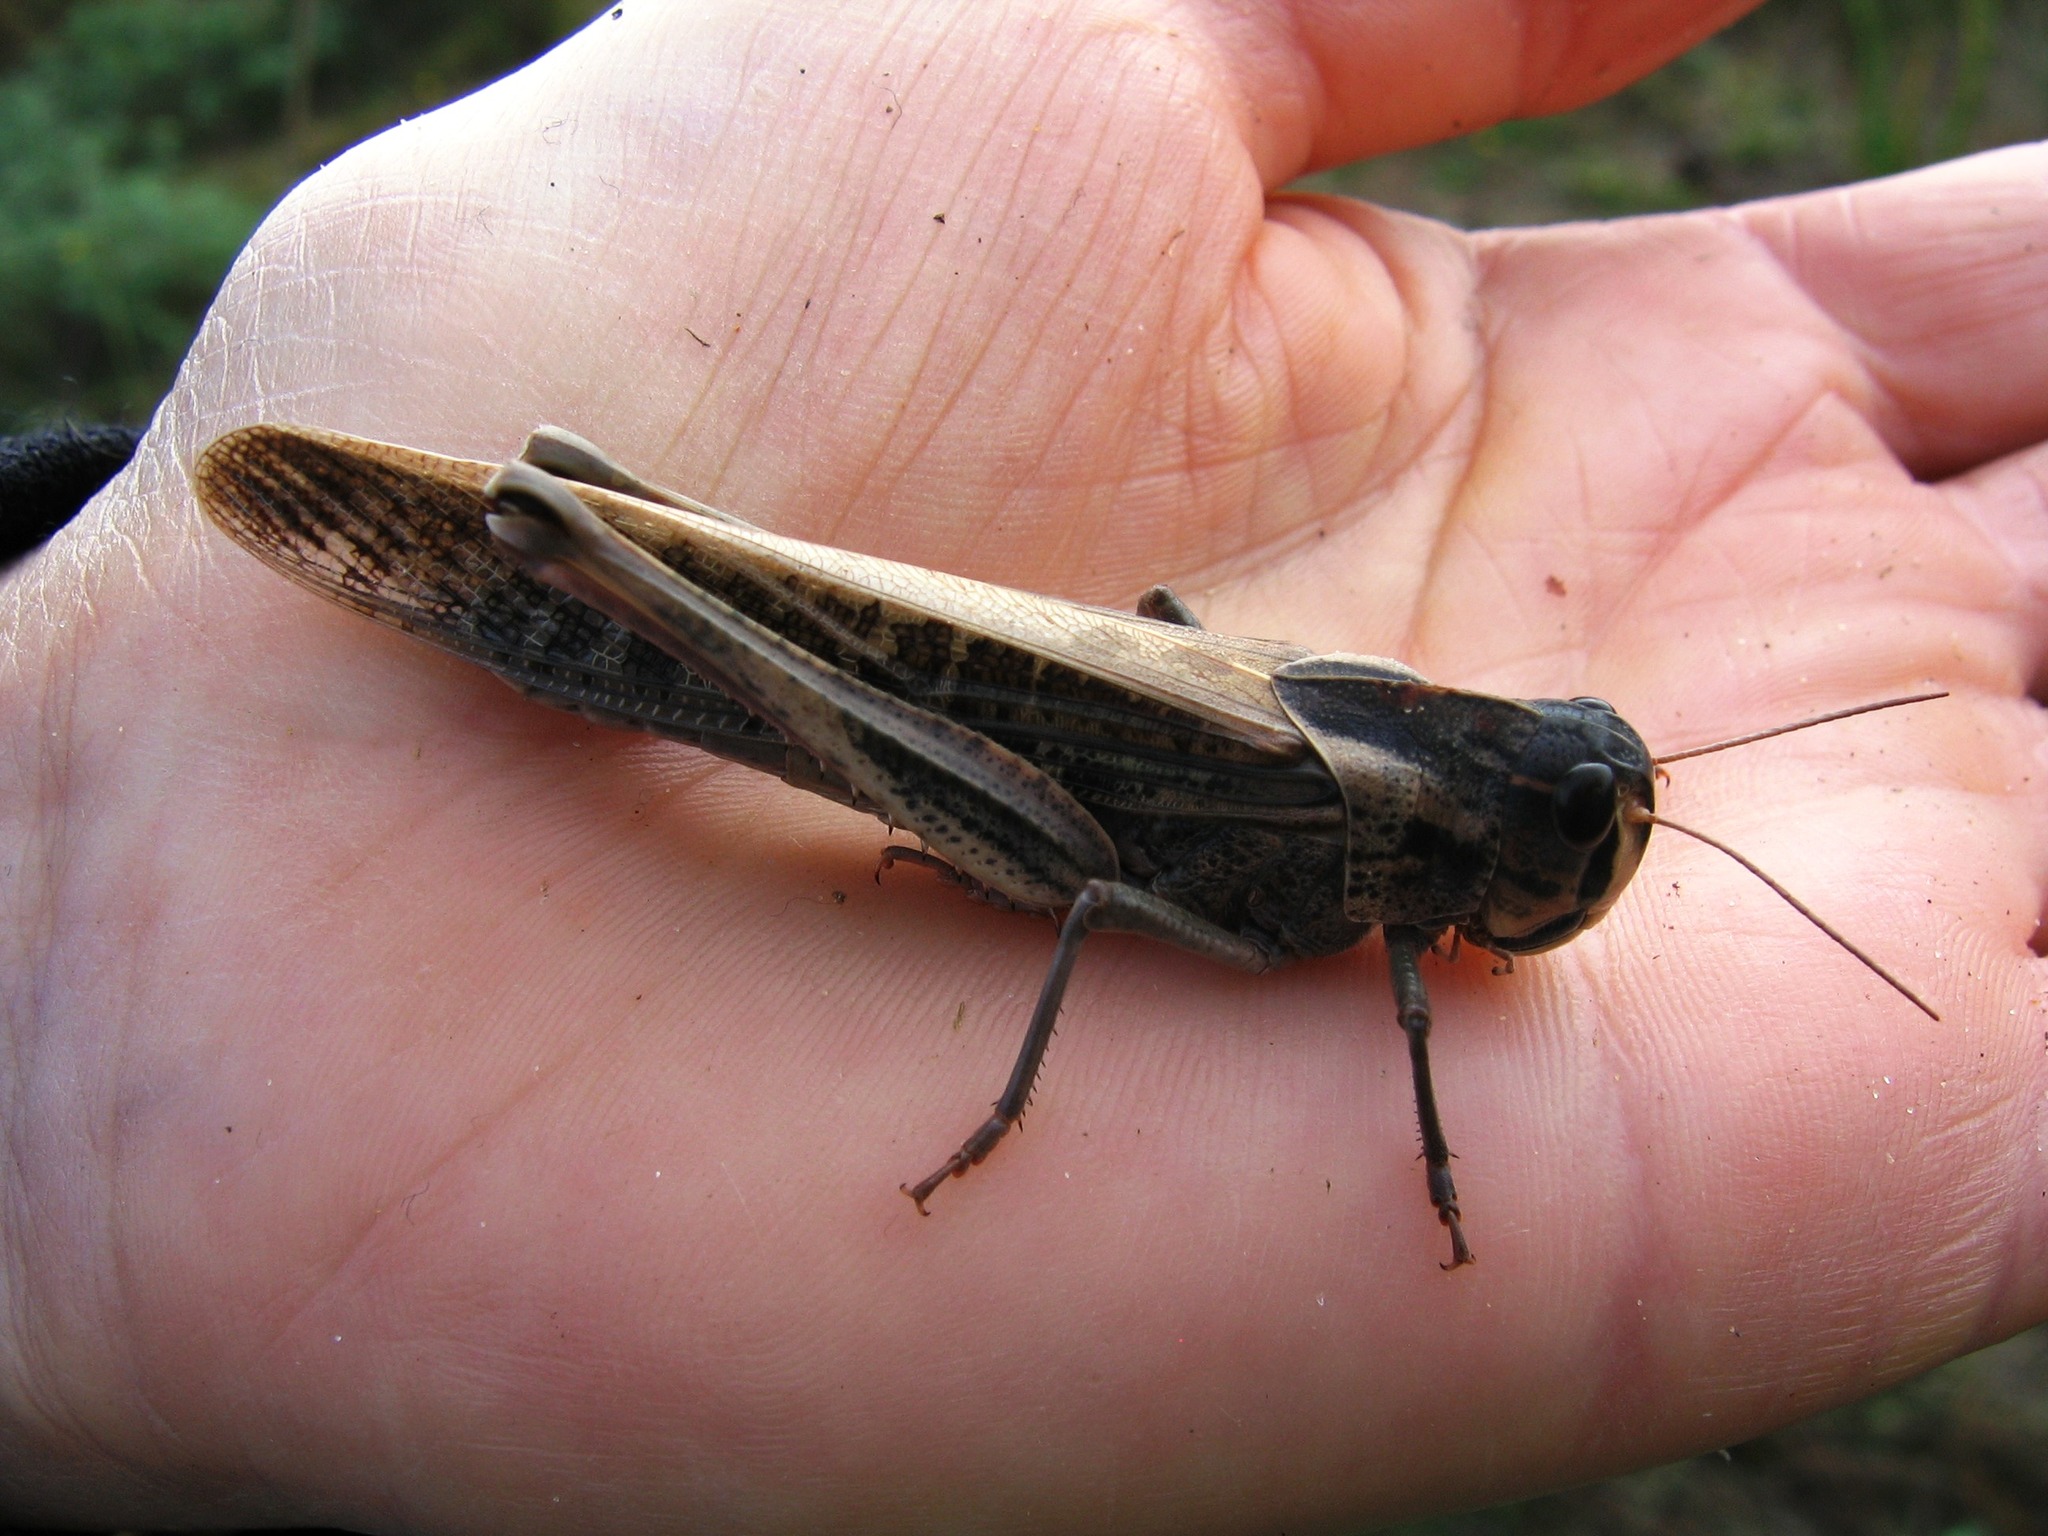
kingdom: Animalia
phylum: Arthropoda
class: Insecta
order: Orthoptera
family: Acrididae
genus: Locusta
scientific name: Locusta migratoria
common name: Migratory locust
